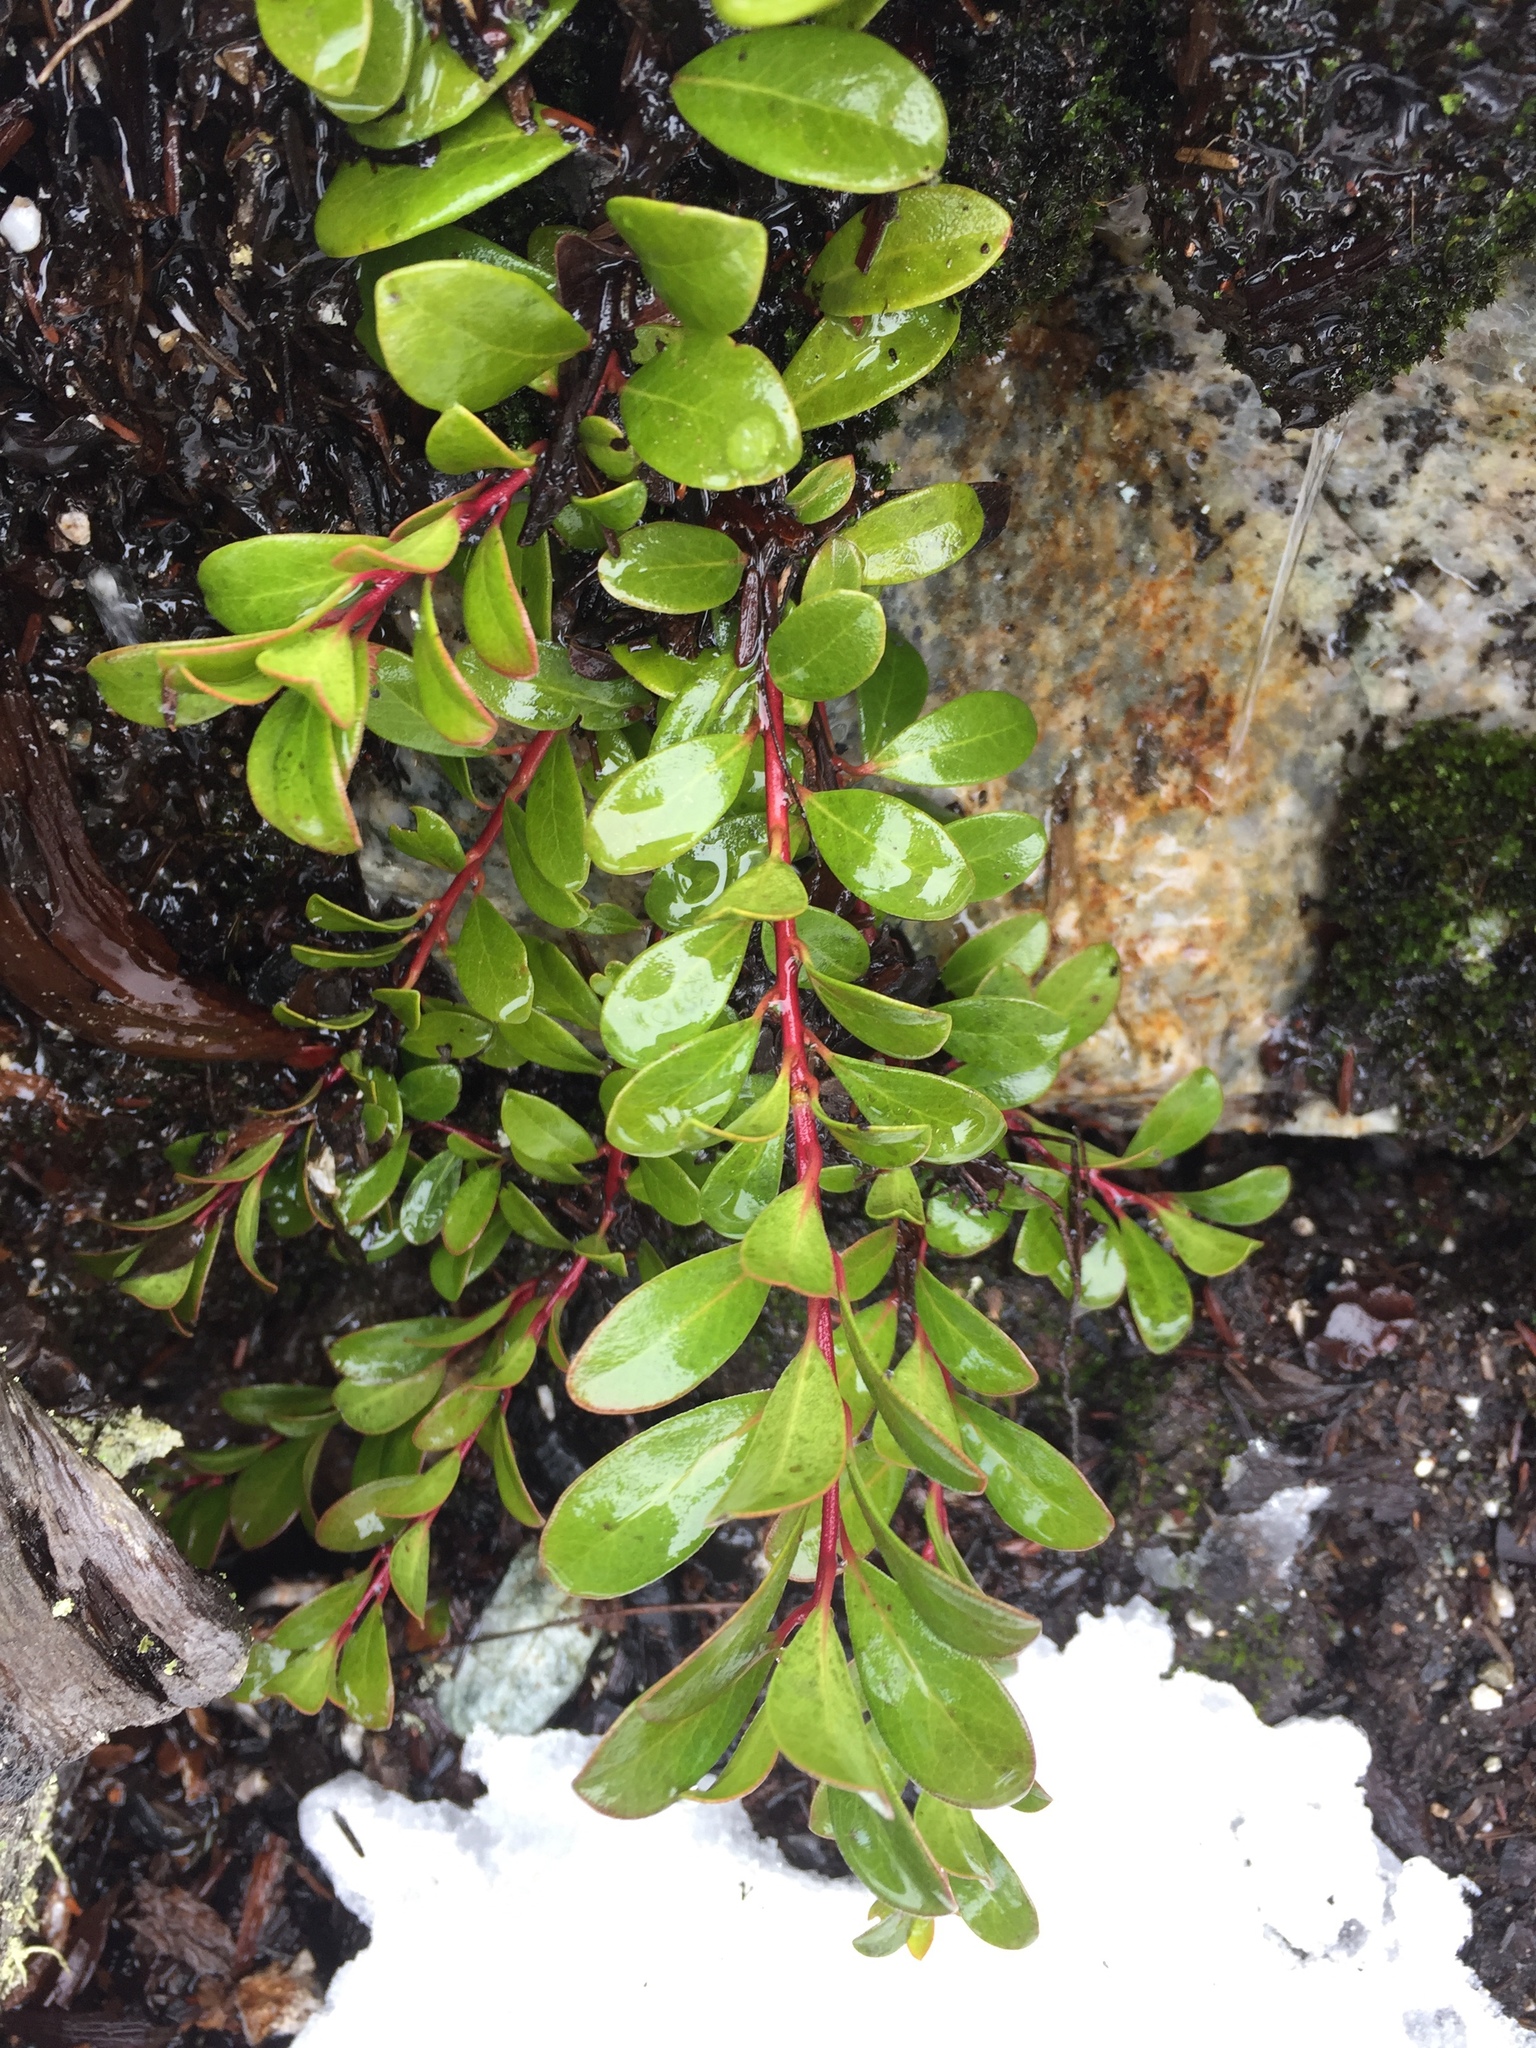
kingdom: Plantae
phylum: Tracheophyta
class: Magnoliopsida
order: Ericales
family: Ericaceae
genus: Arctostaphylos
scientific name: Arctostaphylos uva-ursi
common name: Bearberry
